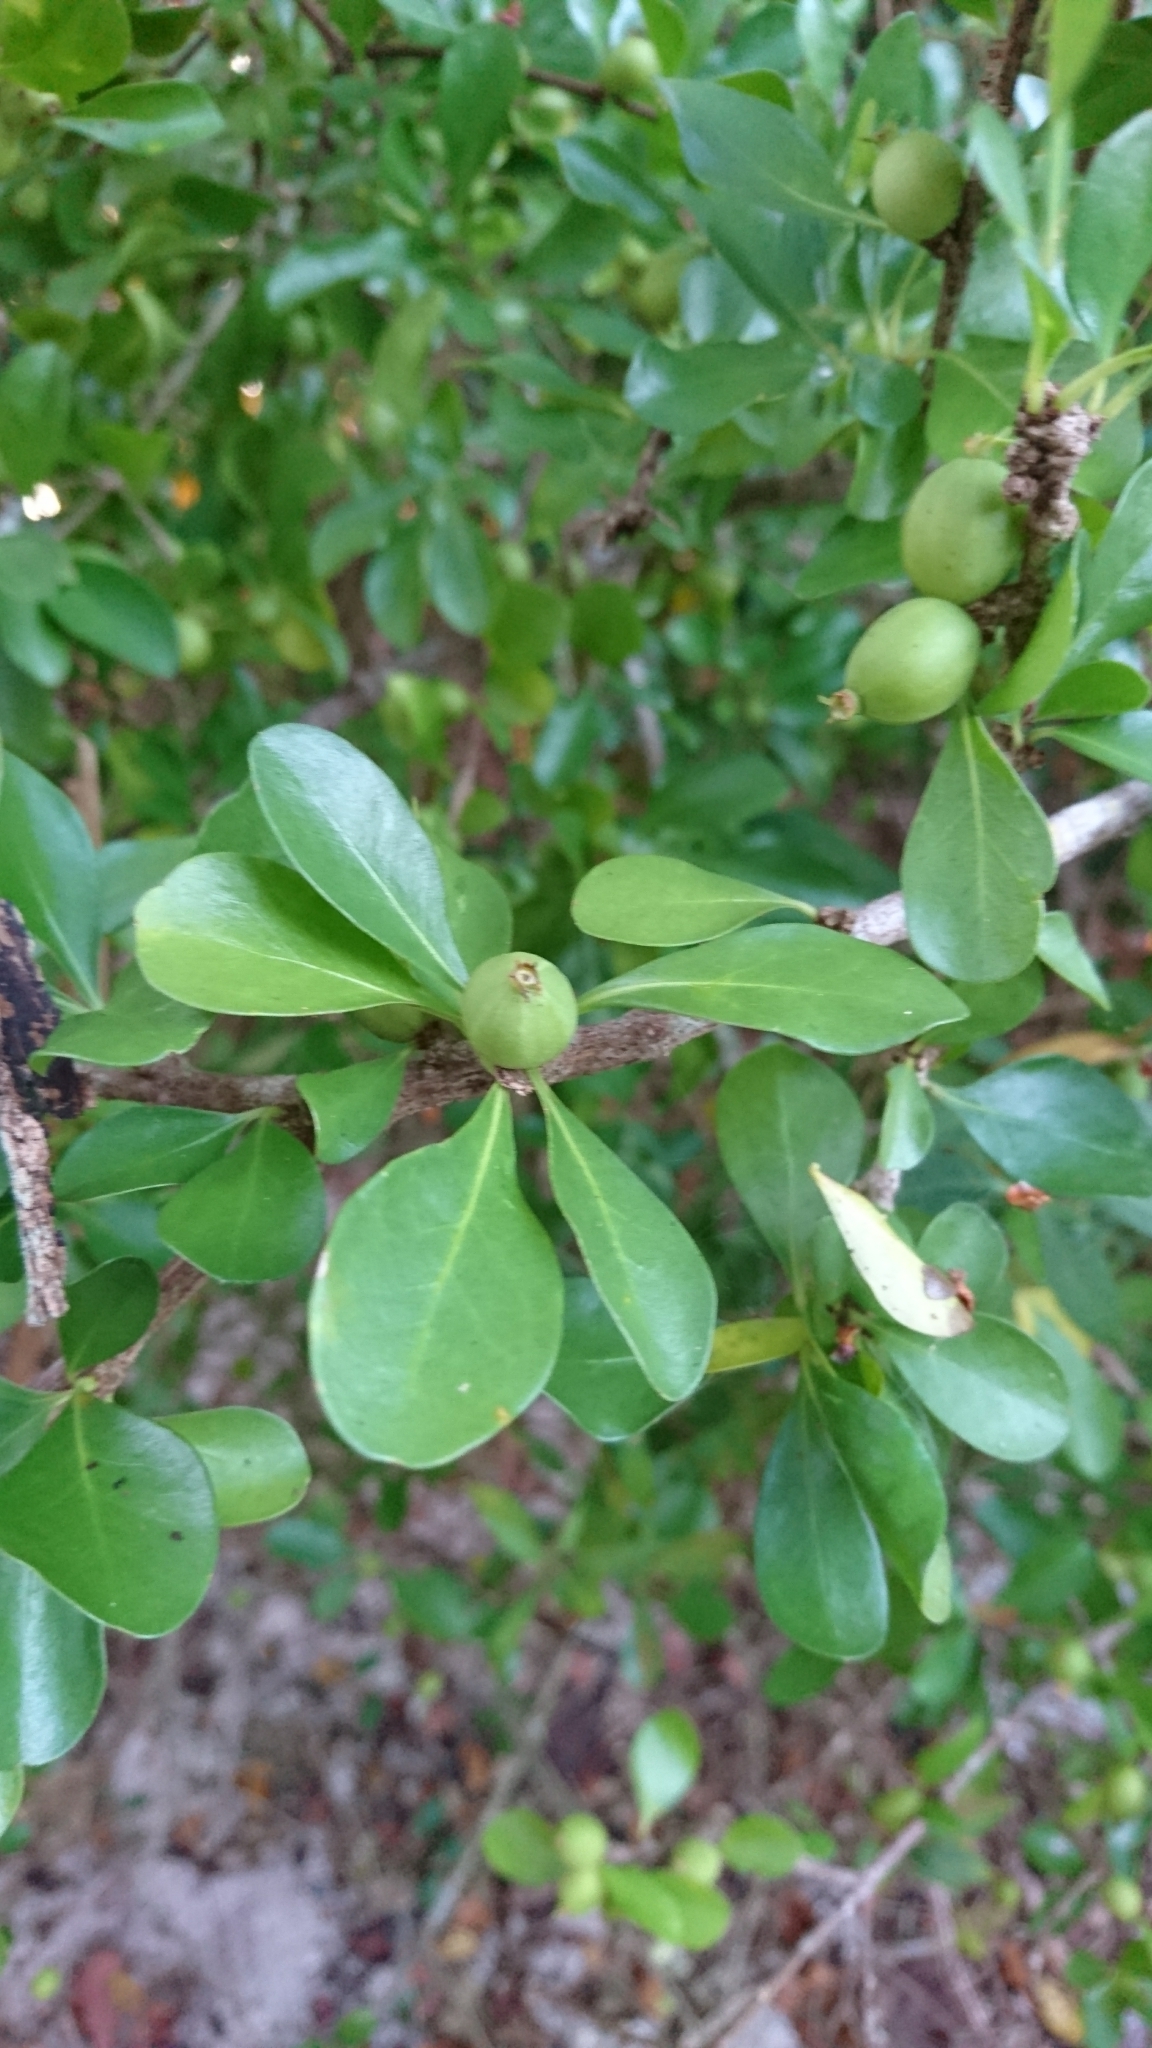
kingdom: Plantae
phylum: Tracheophyta
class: Magnoliopsida
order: Gentianales
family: Rubiaceae
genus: Randia
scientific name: Randia aculeata
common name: Inkberry
